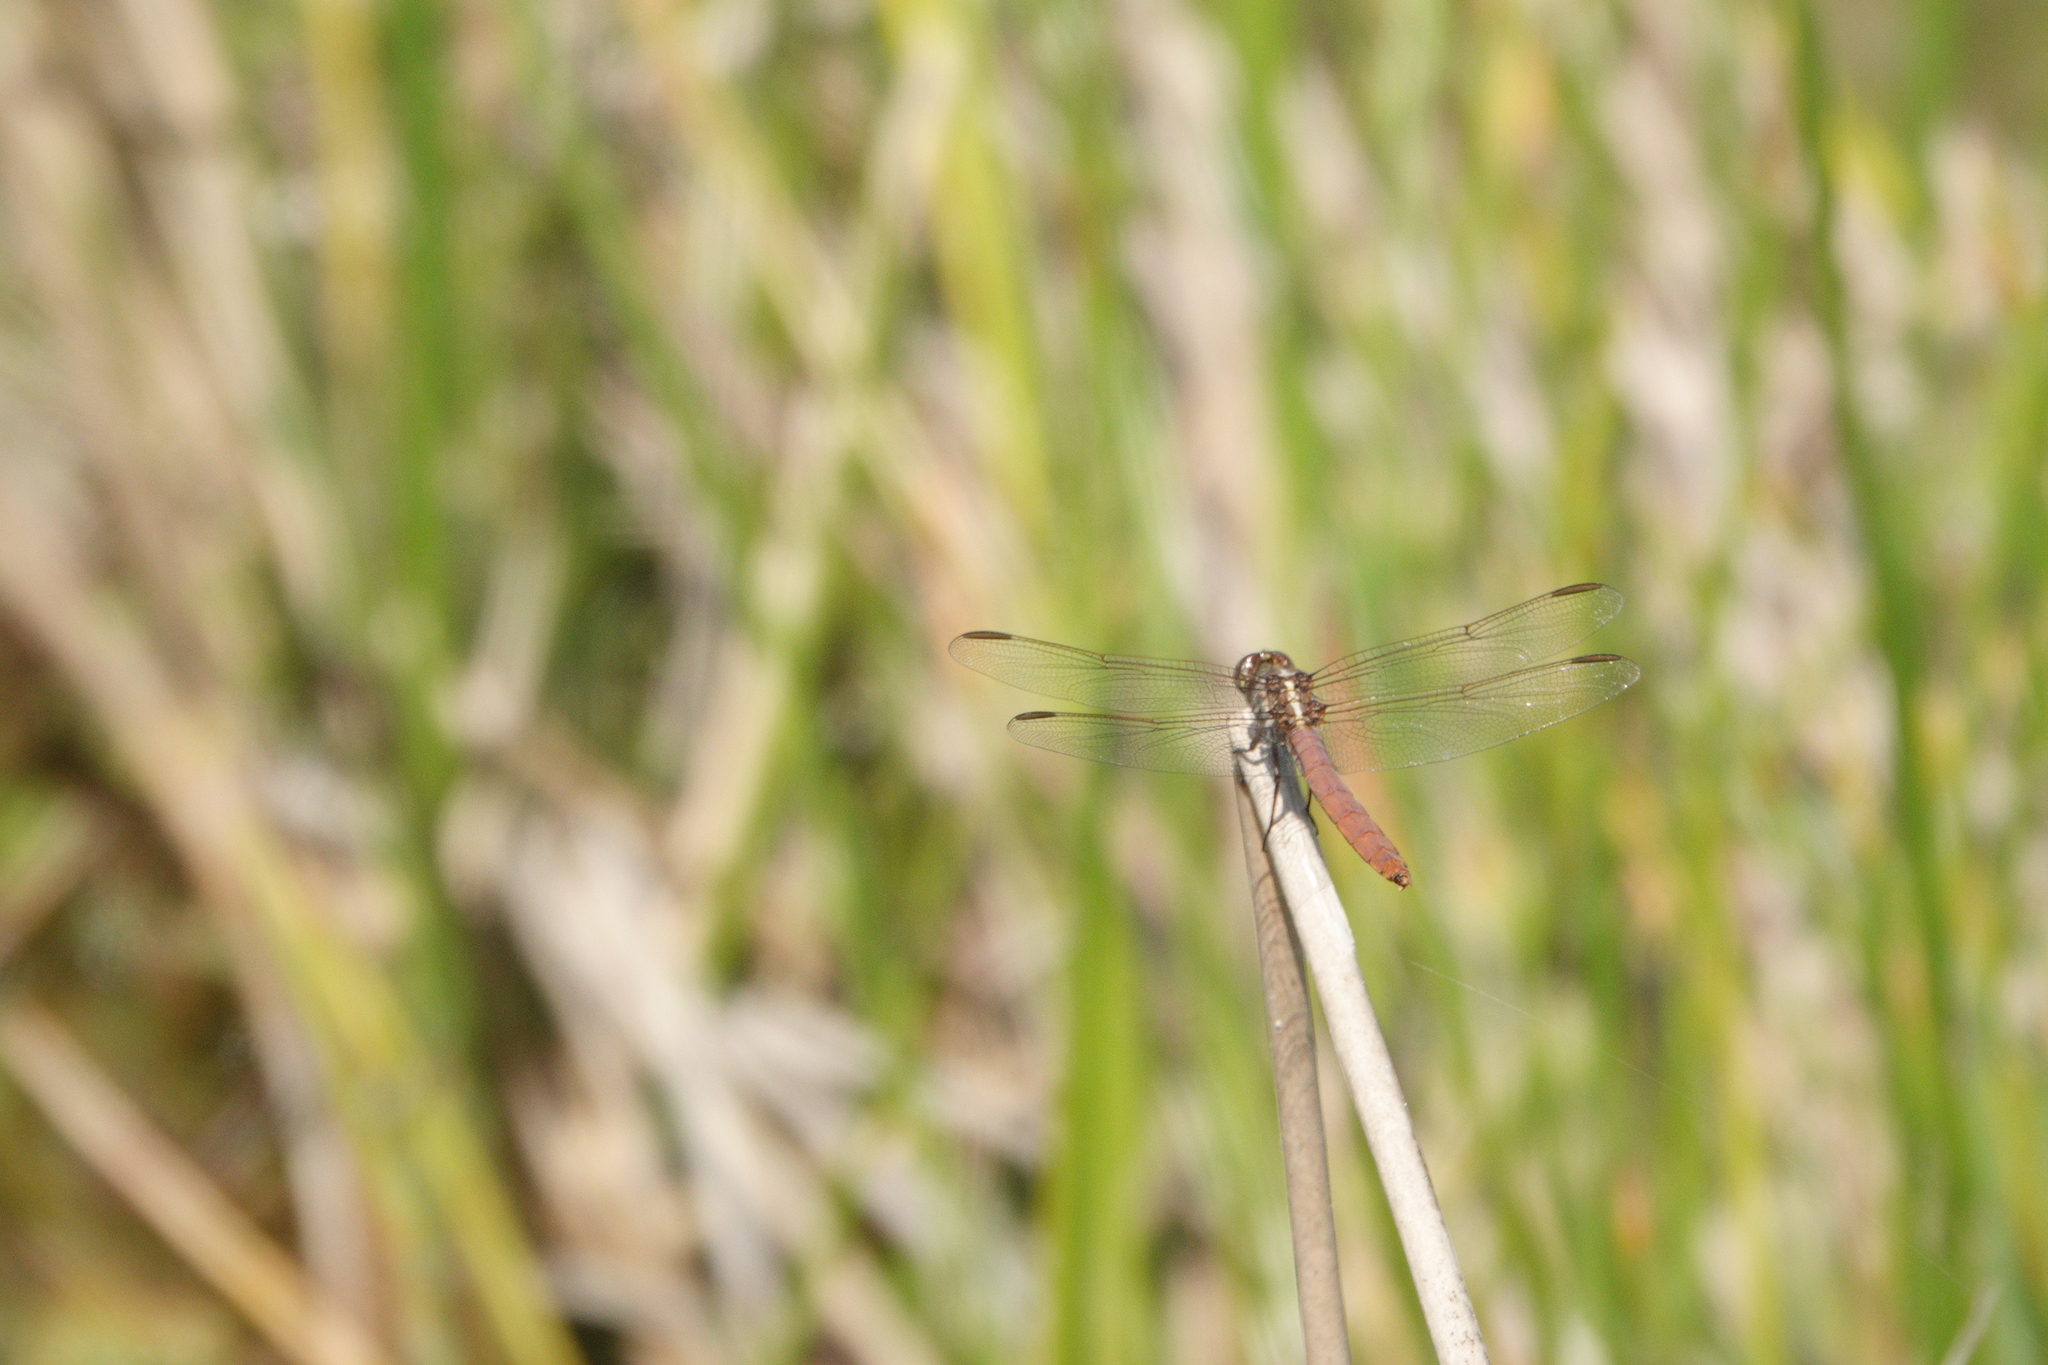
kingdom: Animalia
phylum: Arthropoda
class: Insecta
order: Odonata
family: Libellulidae
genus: Orthemis
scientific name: Orthemis ferruginea
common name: Roseate skimmer
